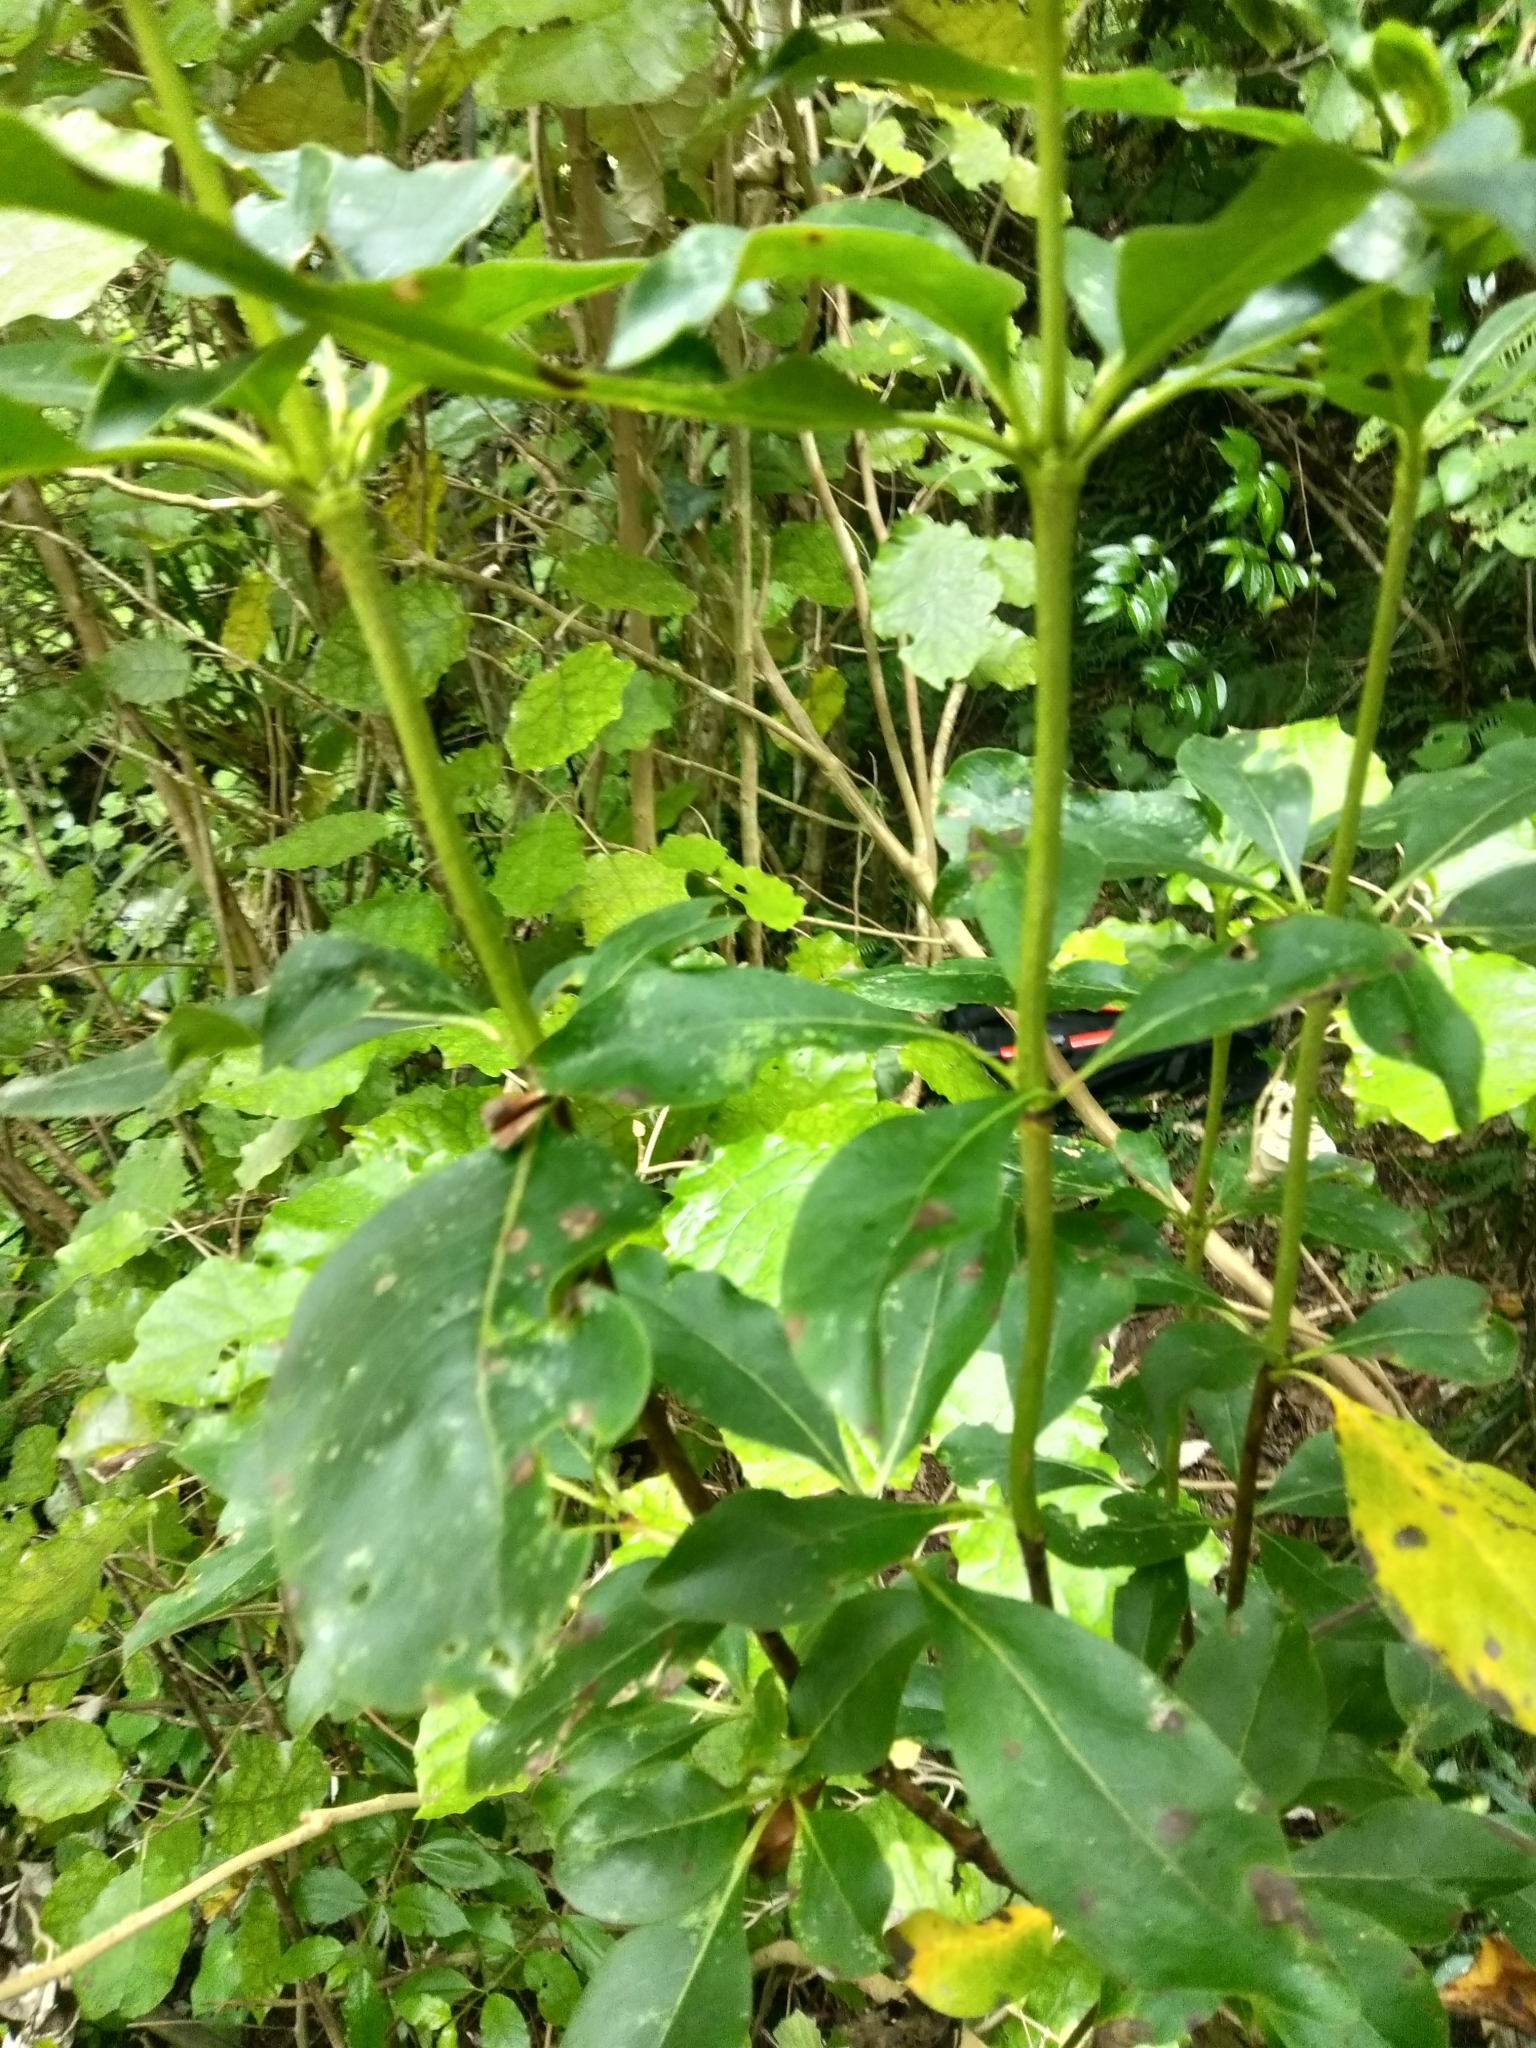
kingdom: Plantae
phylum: Tracheophyta
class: Magnoliopsida
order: Gentianales
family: Rubiaceae
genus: Coprosma
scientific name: Coprosma robusta
